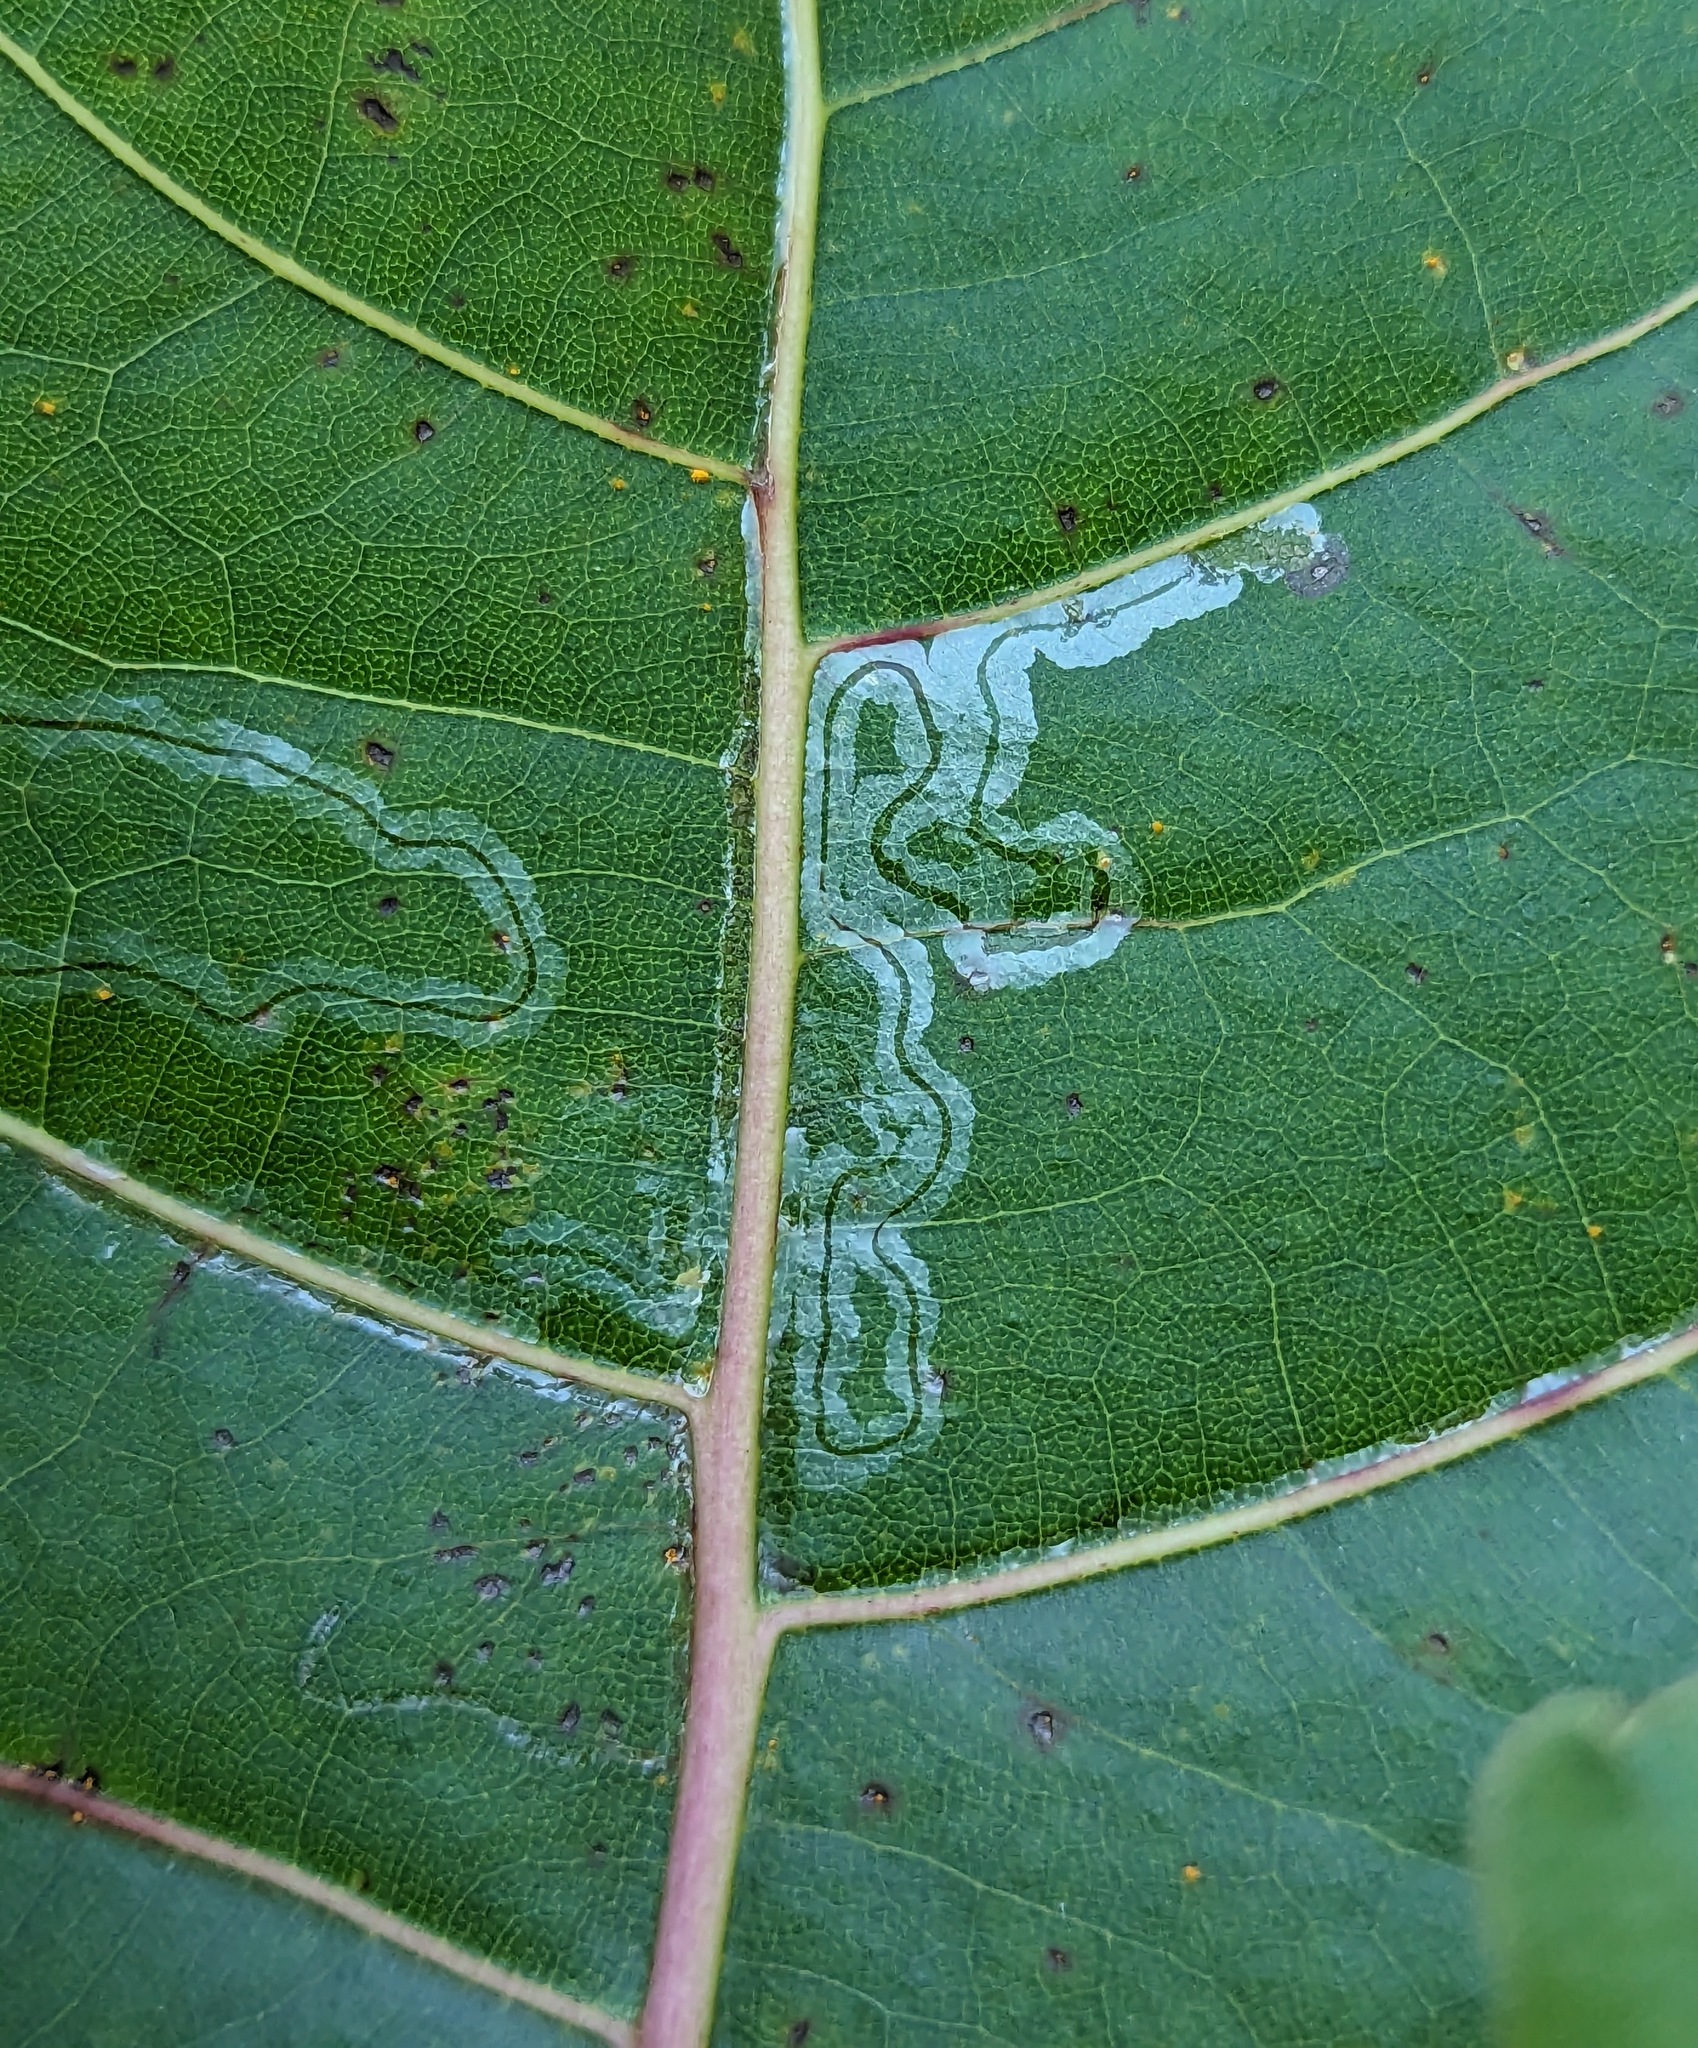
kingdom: Animalia
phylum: Arthropoda
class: Insecta
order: Lepidoptera
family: Gracillariidae
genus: Phyllocnistis
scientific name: Phyllocnistis populiella
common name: Aspen serpentine leafminer moth
